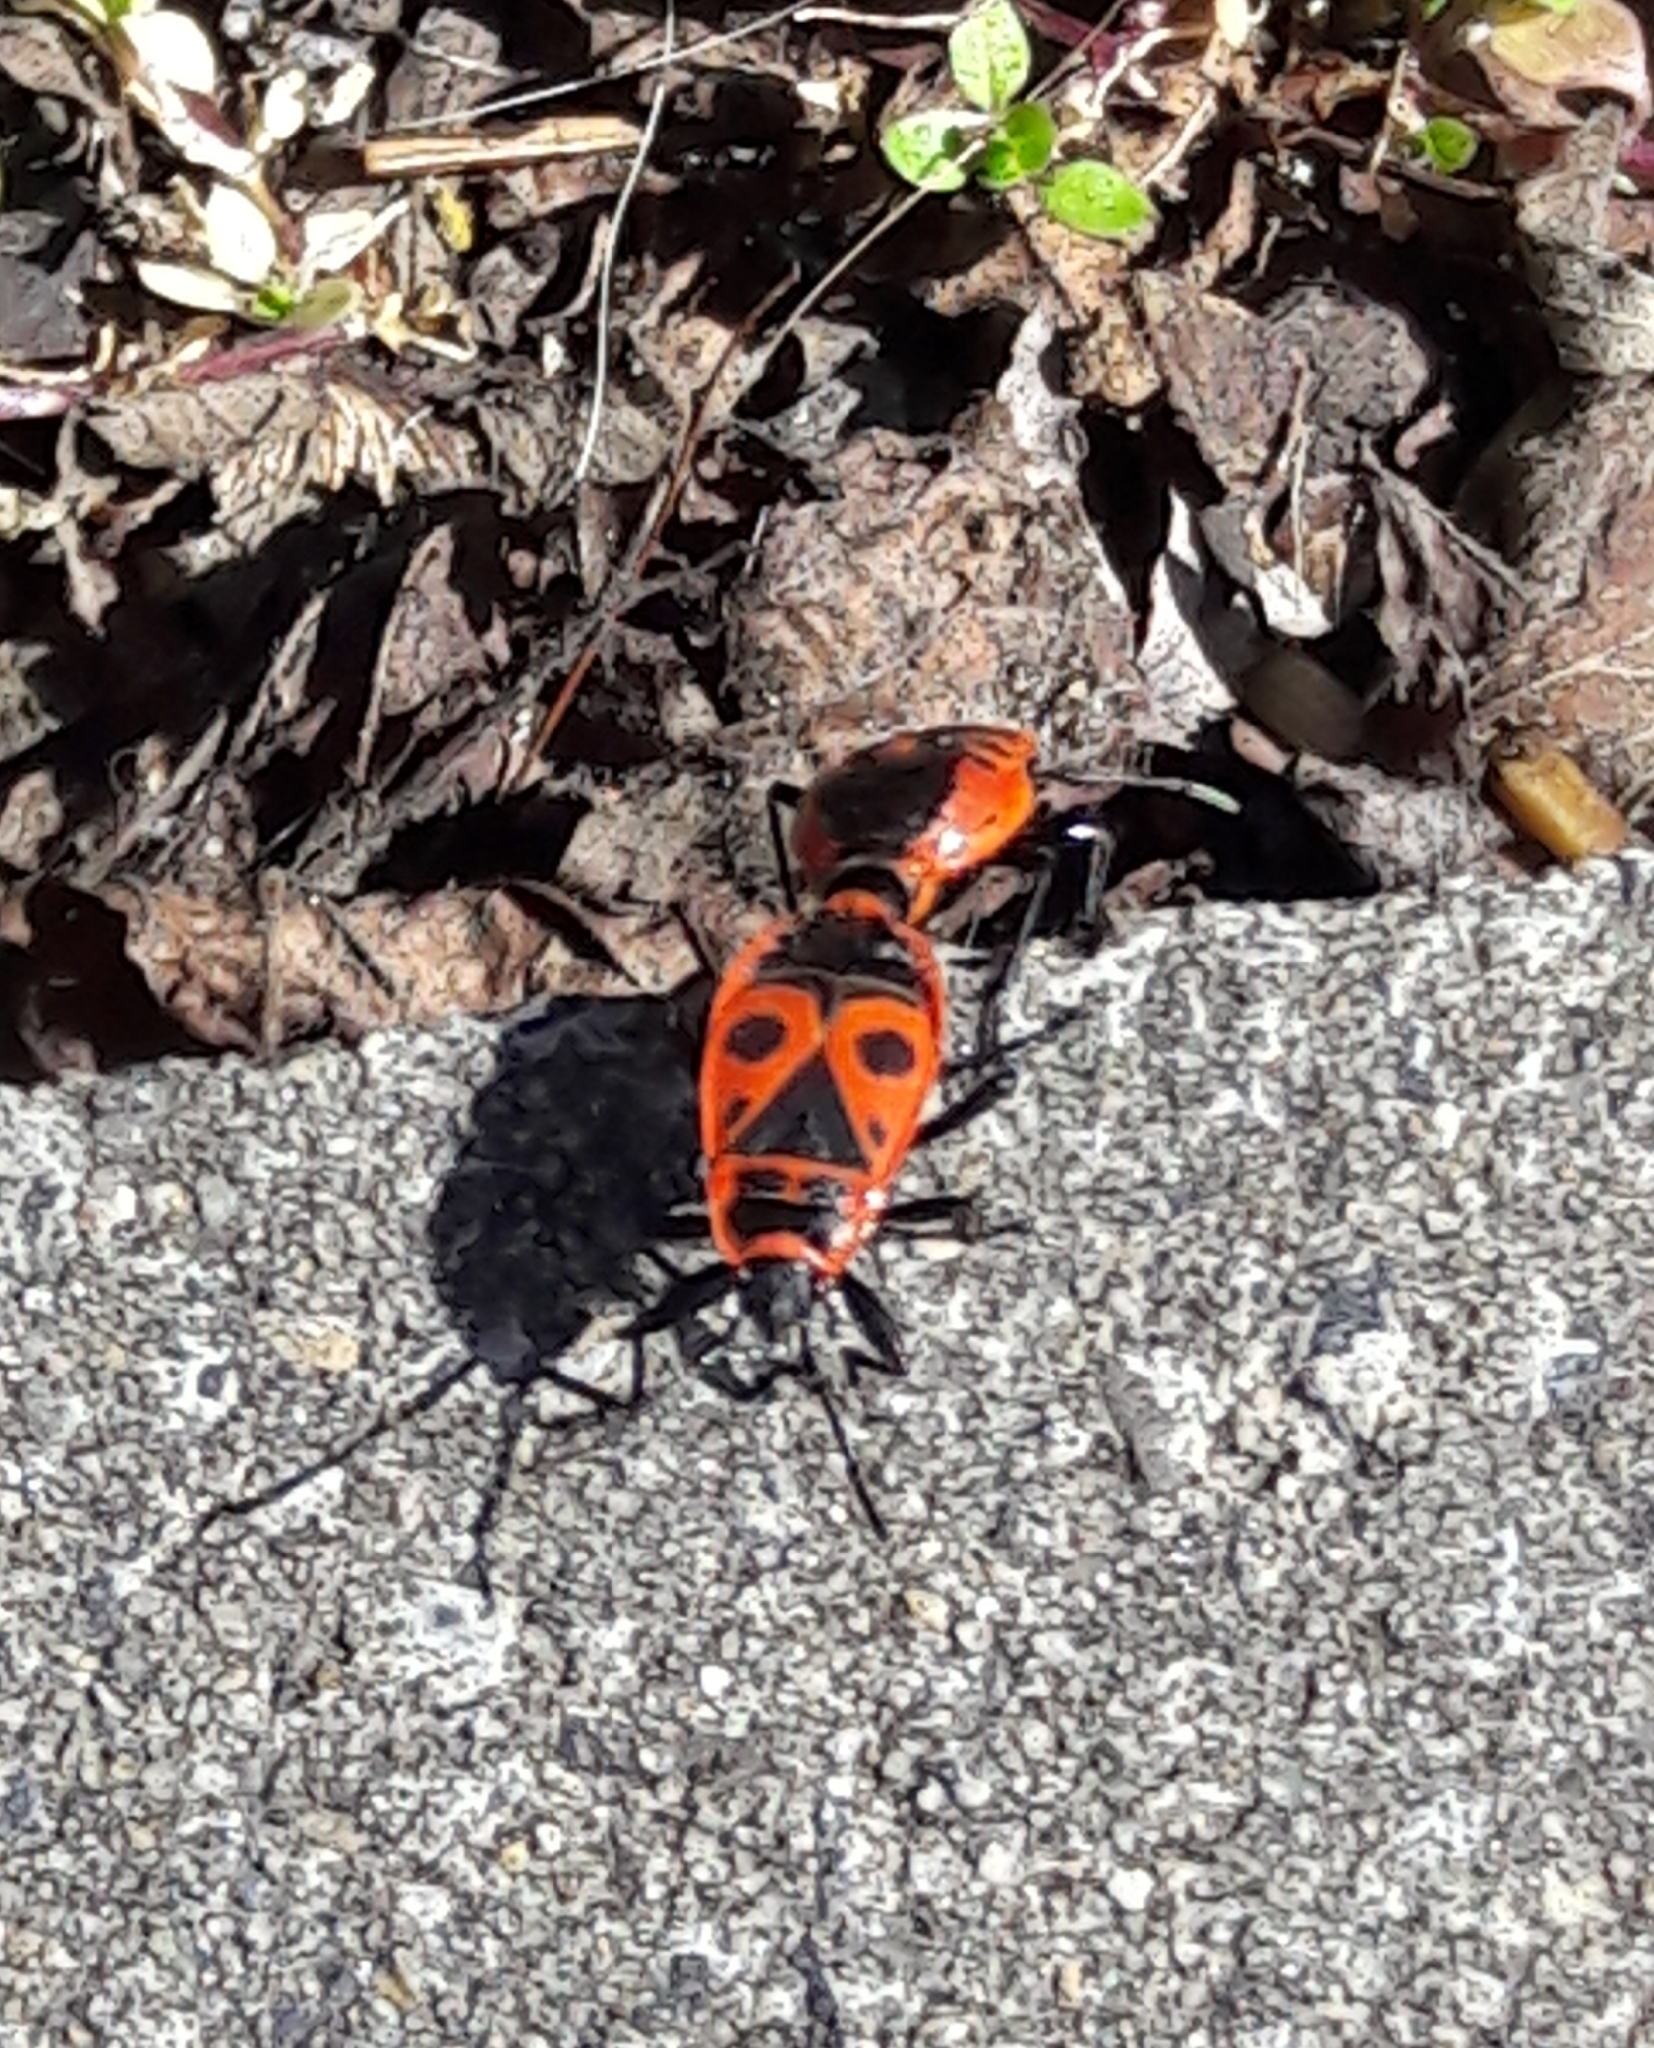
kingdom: Animalia
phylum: Arthropoda
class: Insecta
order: Hemiptera
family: Pyrrhocoridae
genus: Pyrrhocoris
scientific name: Pyrrhocoris apterus
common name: Firebug
